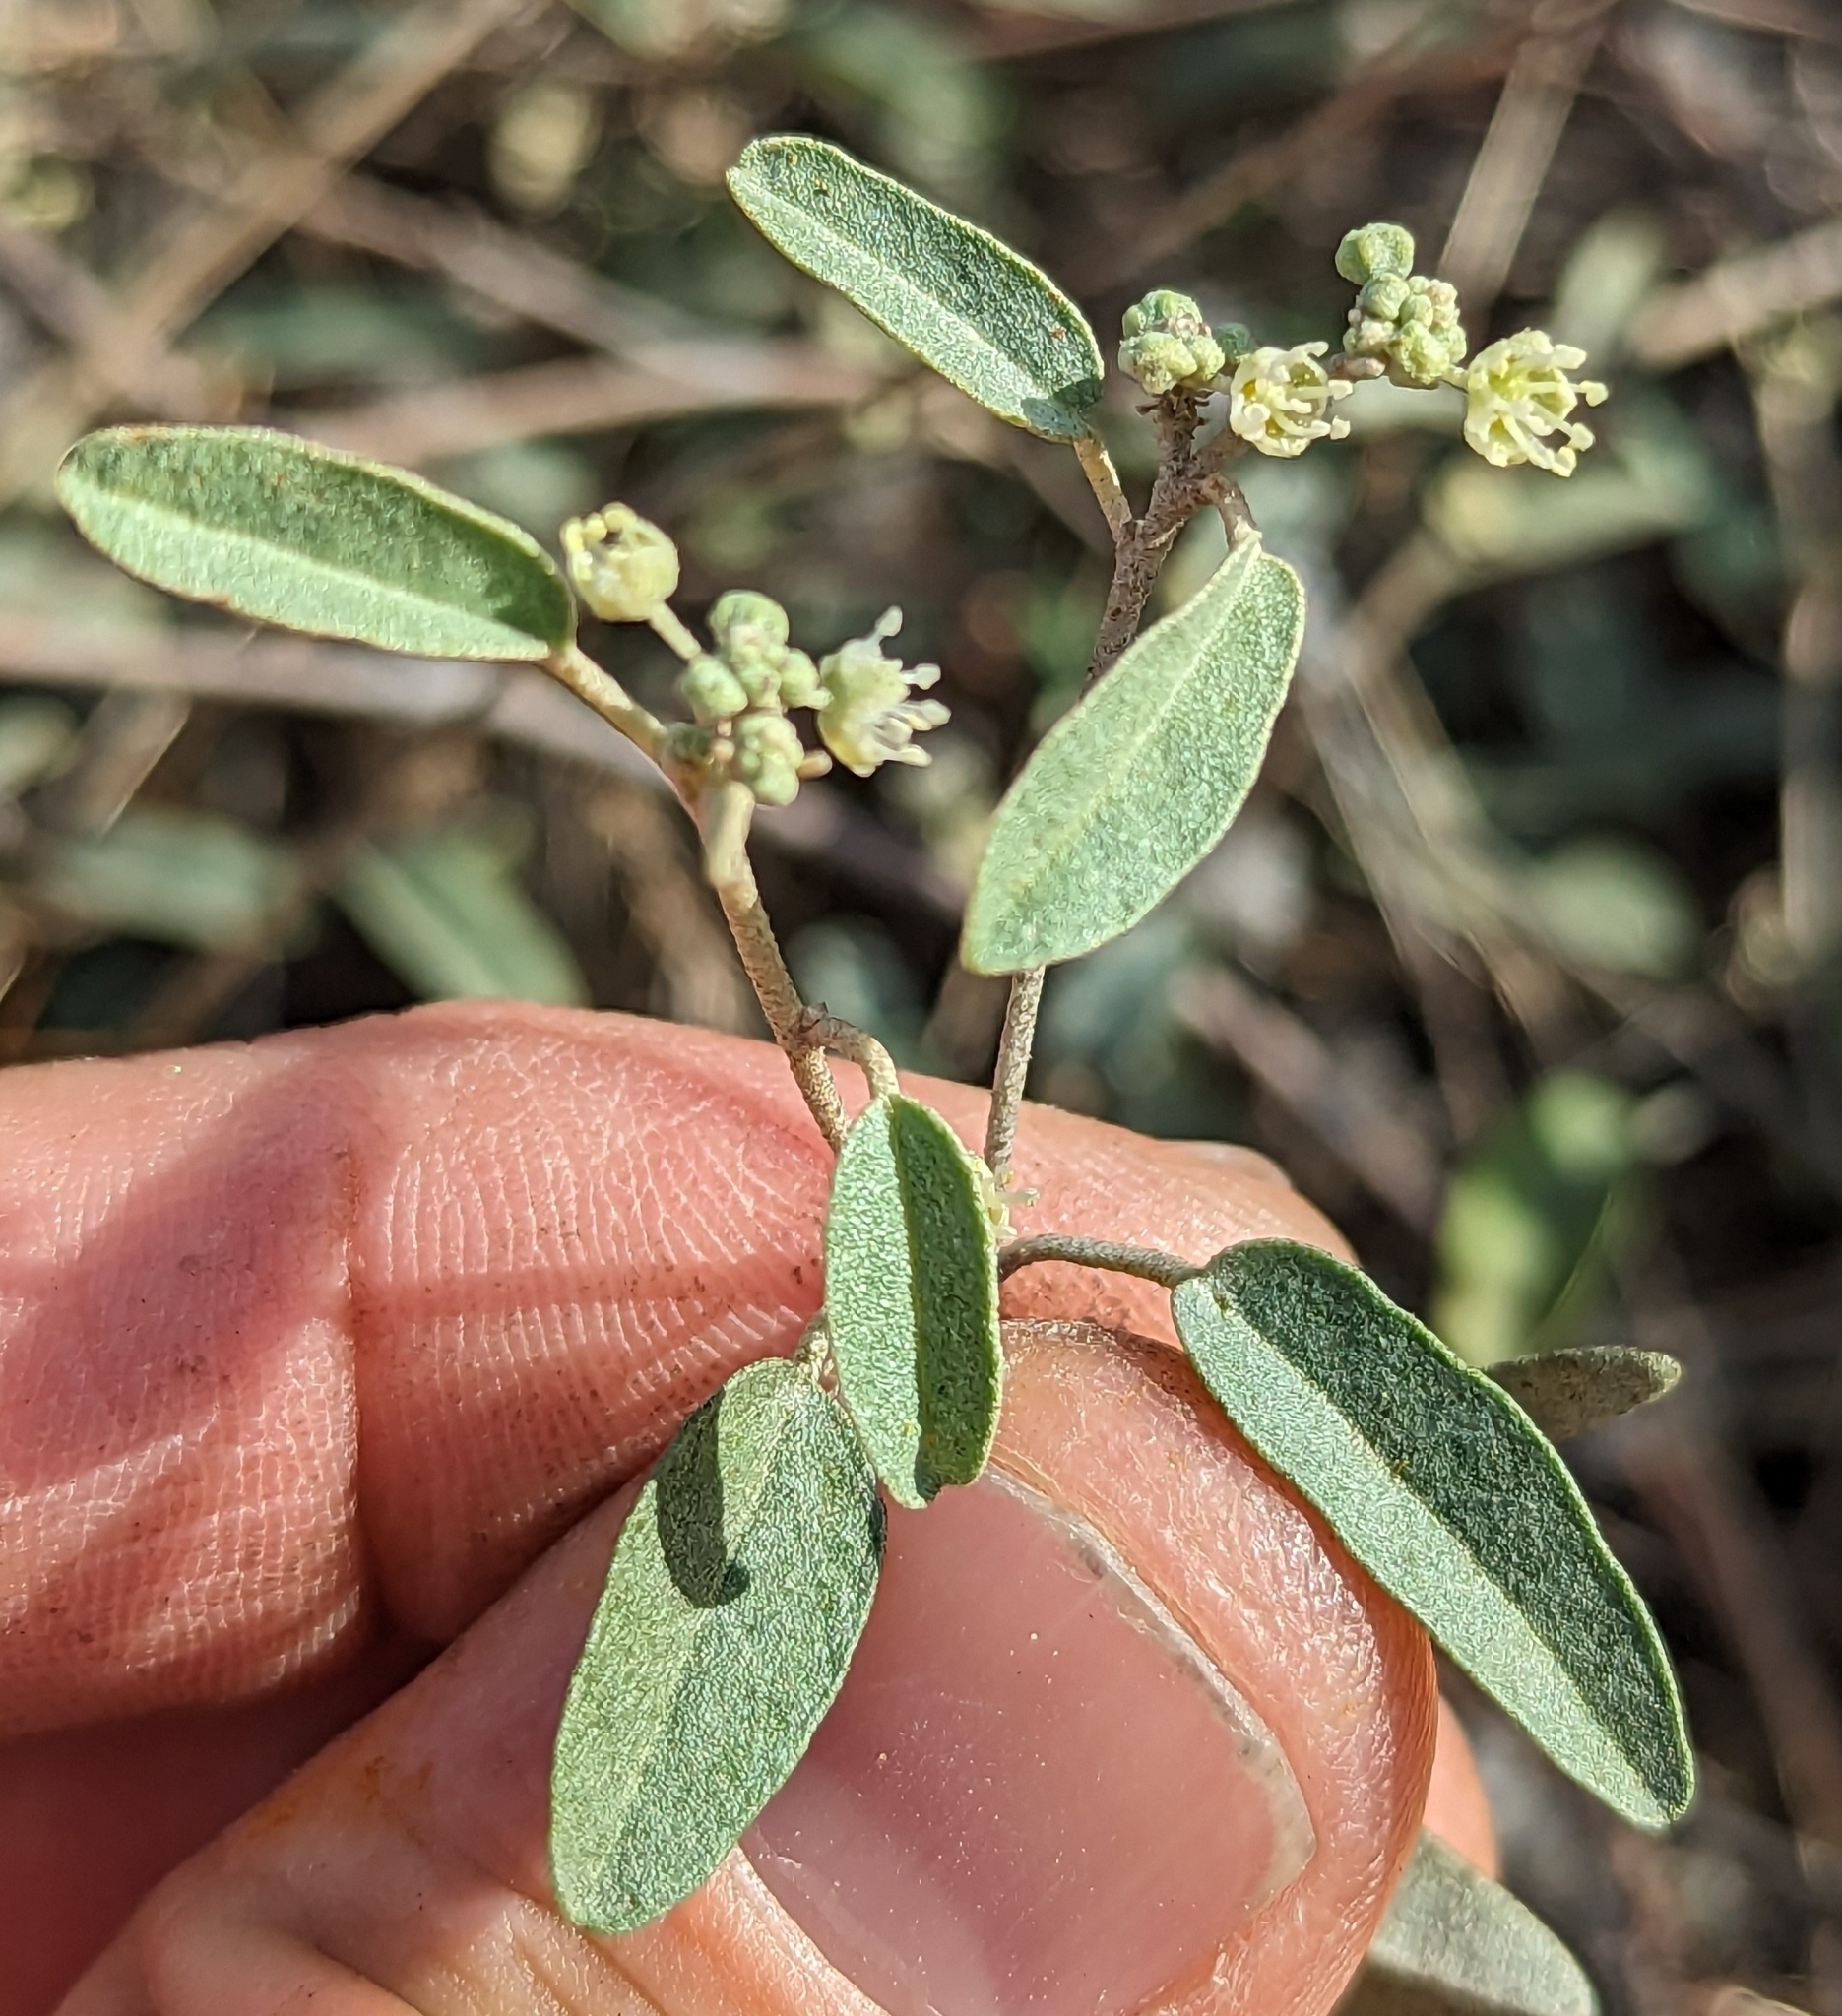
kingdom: Plantae
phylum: Tracheophyta
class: Magnoliopsida
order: Malpighiales
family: Euphorbiaceae
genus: Croton
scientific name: Croton californicus
